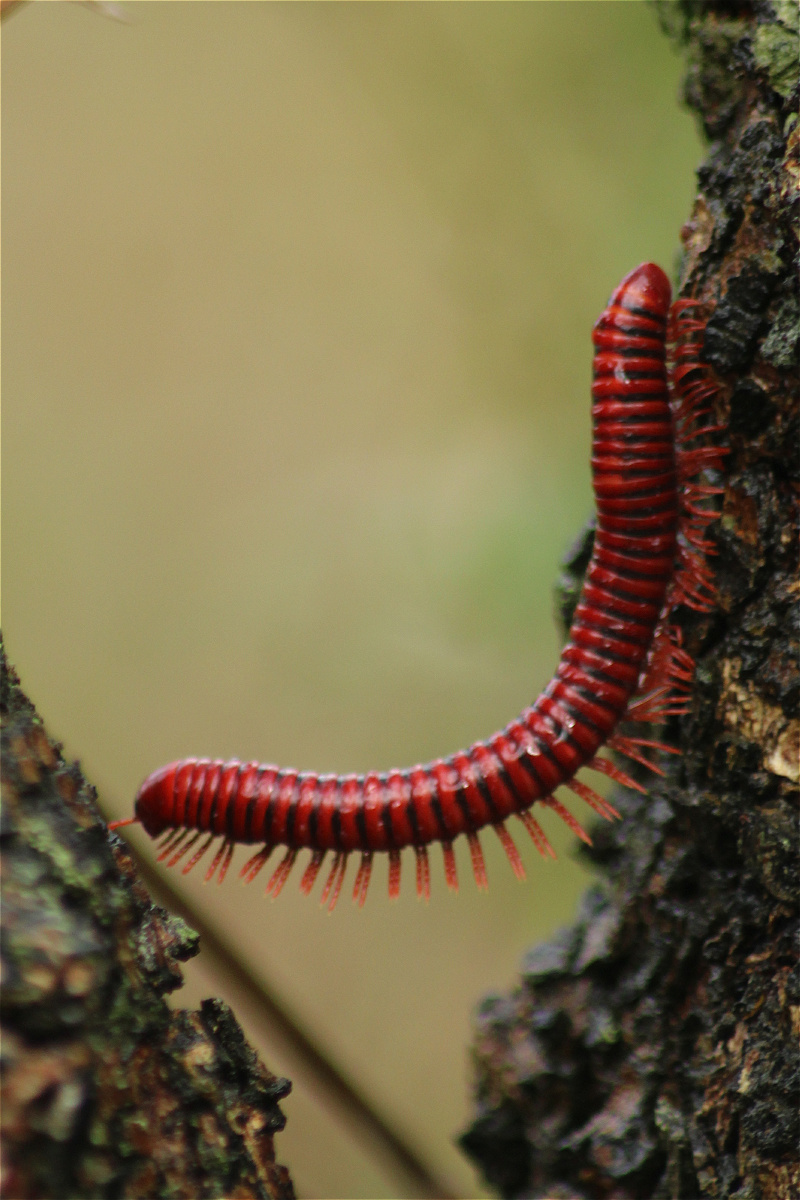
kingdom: Animalia
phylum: Arthropoda
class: Diplopoda
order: Spirobolida
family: Pachybolidae
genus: Centrobolus
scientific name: Centrobolus richardi
